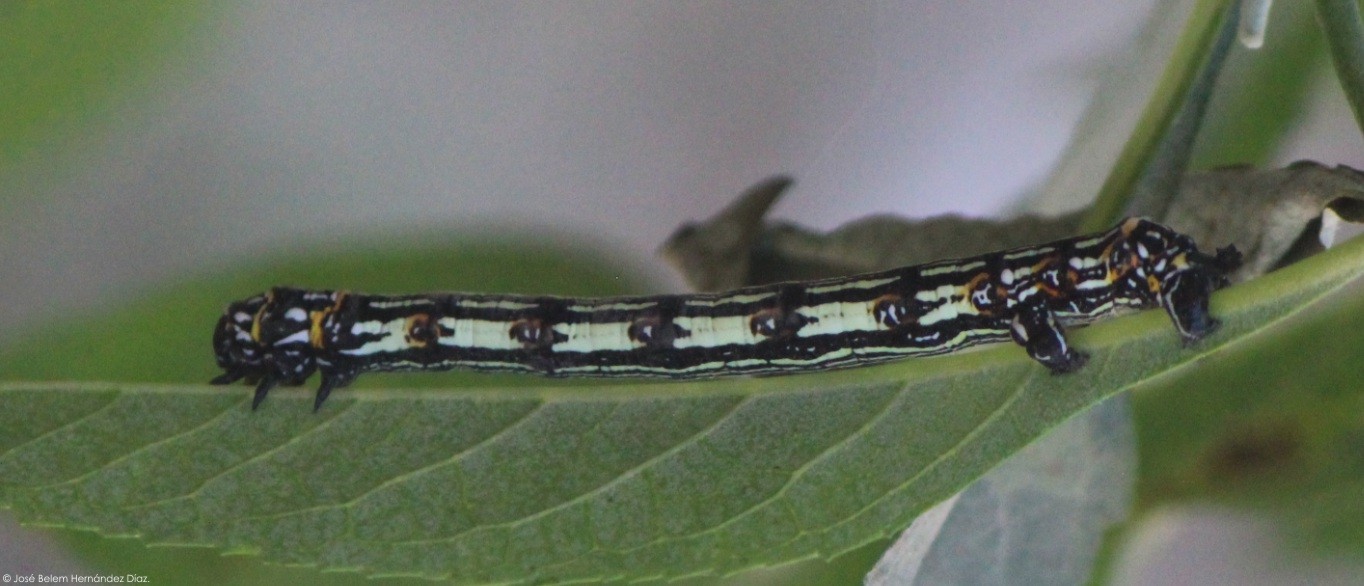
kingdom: Animalia
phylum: Arthropoda
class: Insecta
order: Lepidoptera
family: Geometridae
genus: Acronyctodes
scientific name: Acronyctodes mexicanaria
